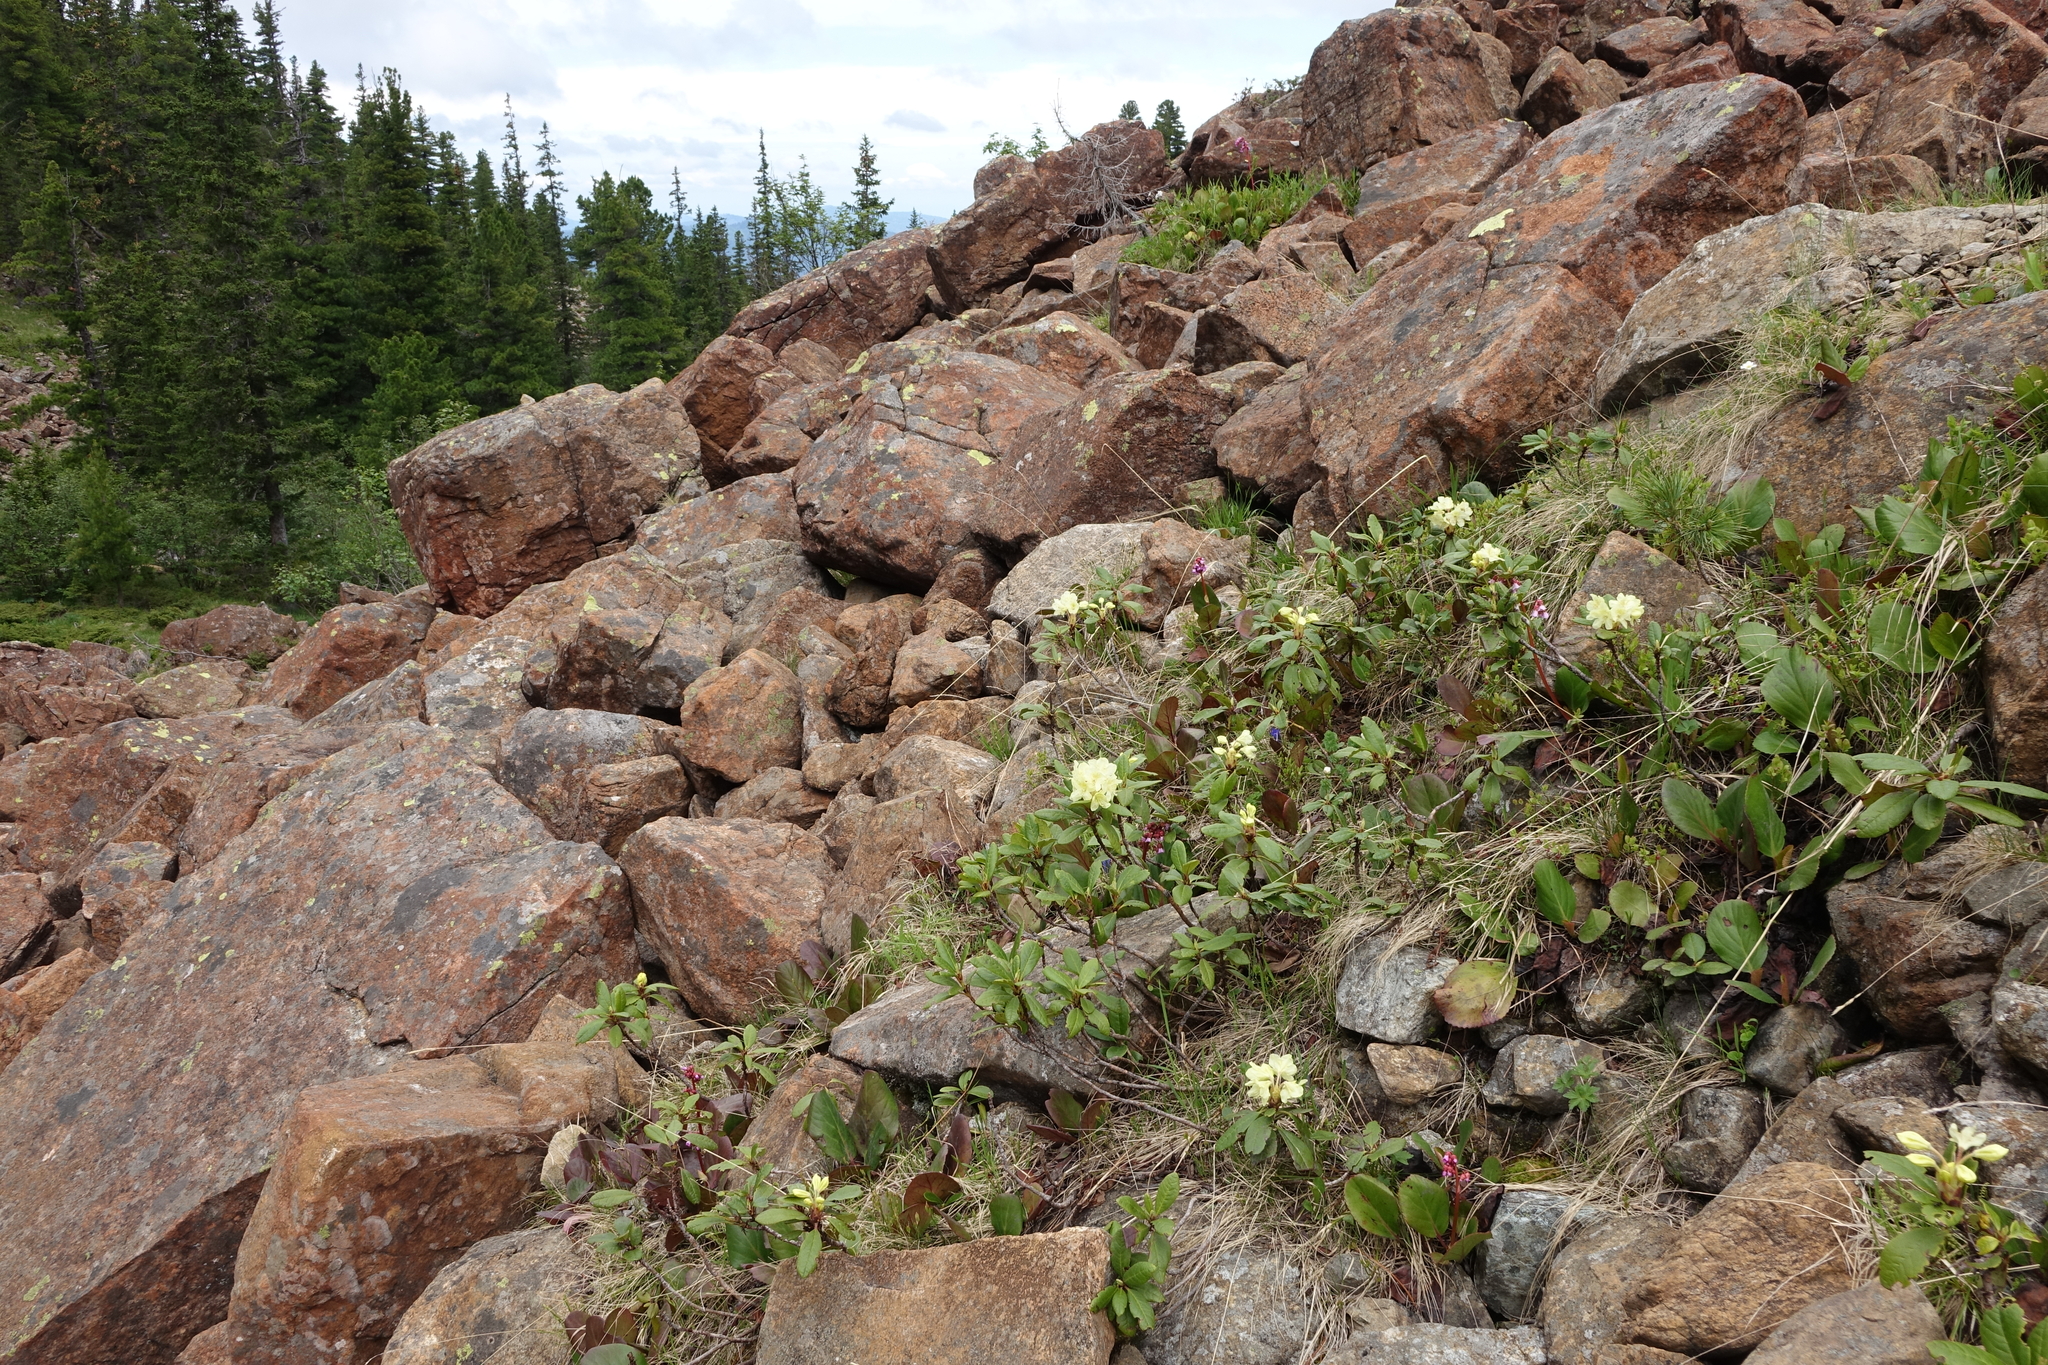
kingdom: Plantae
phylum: Tracheophyta
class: Magnoliopsida
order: Ericales
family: Ericaceae
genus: Rhododendron
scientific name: Rhododendron aureum
